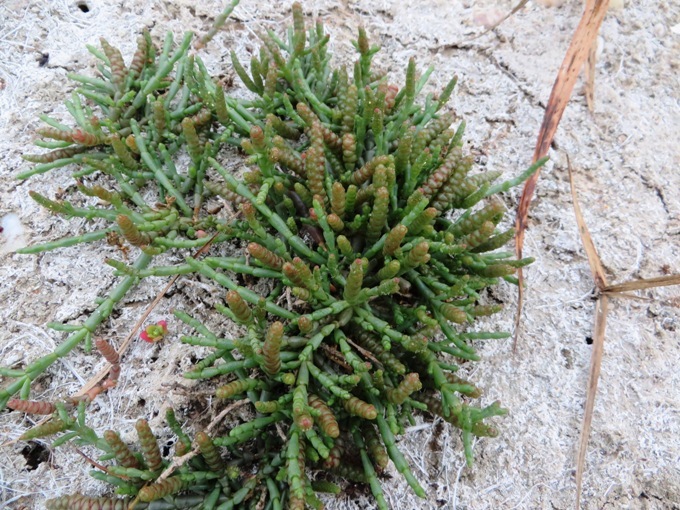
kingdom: Plantae
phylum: Tracheophyta
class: Magnoliopsida
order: Caryophyllales
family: Amaranthaceae
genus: Salicornia
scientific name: Salicornia natalensis
